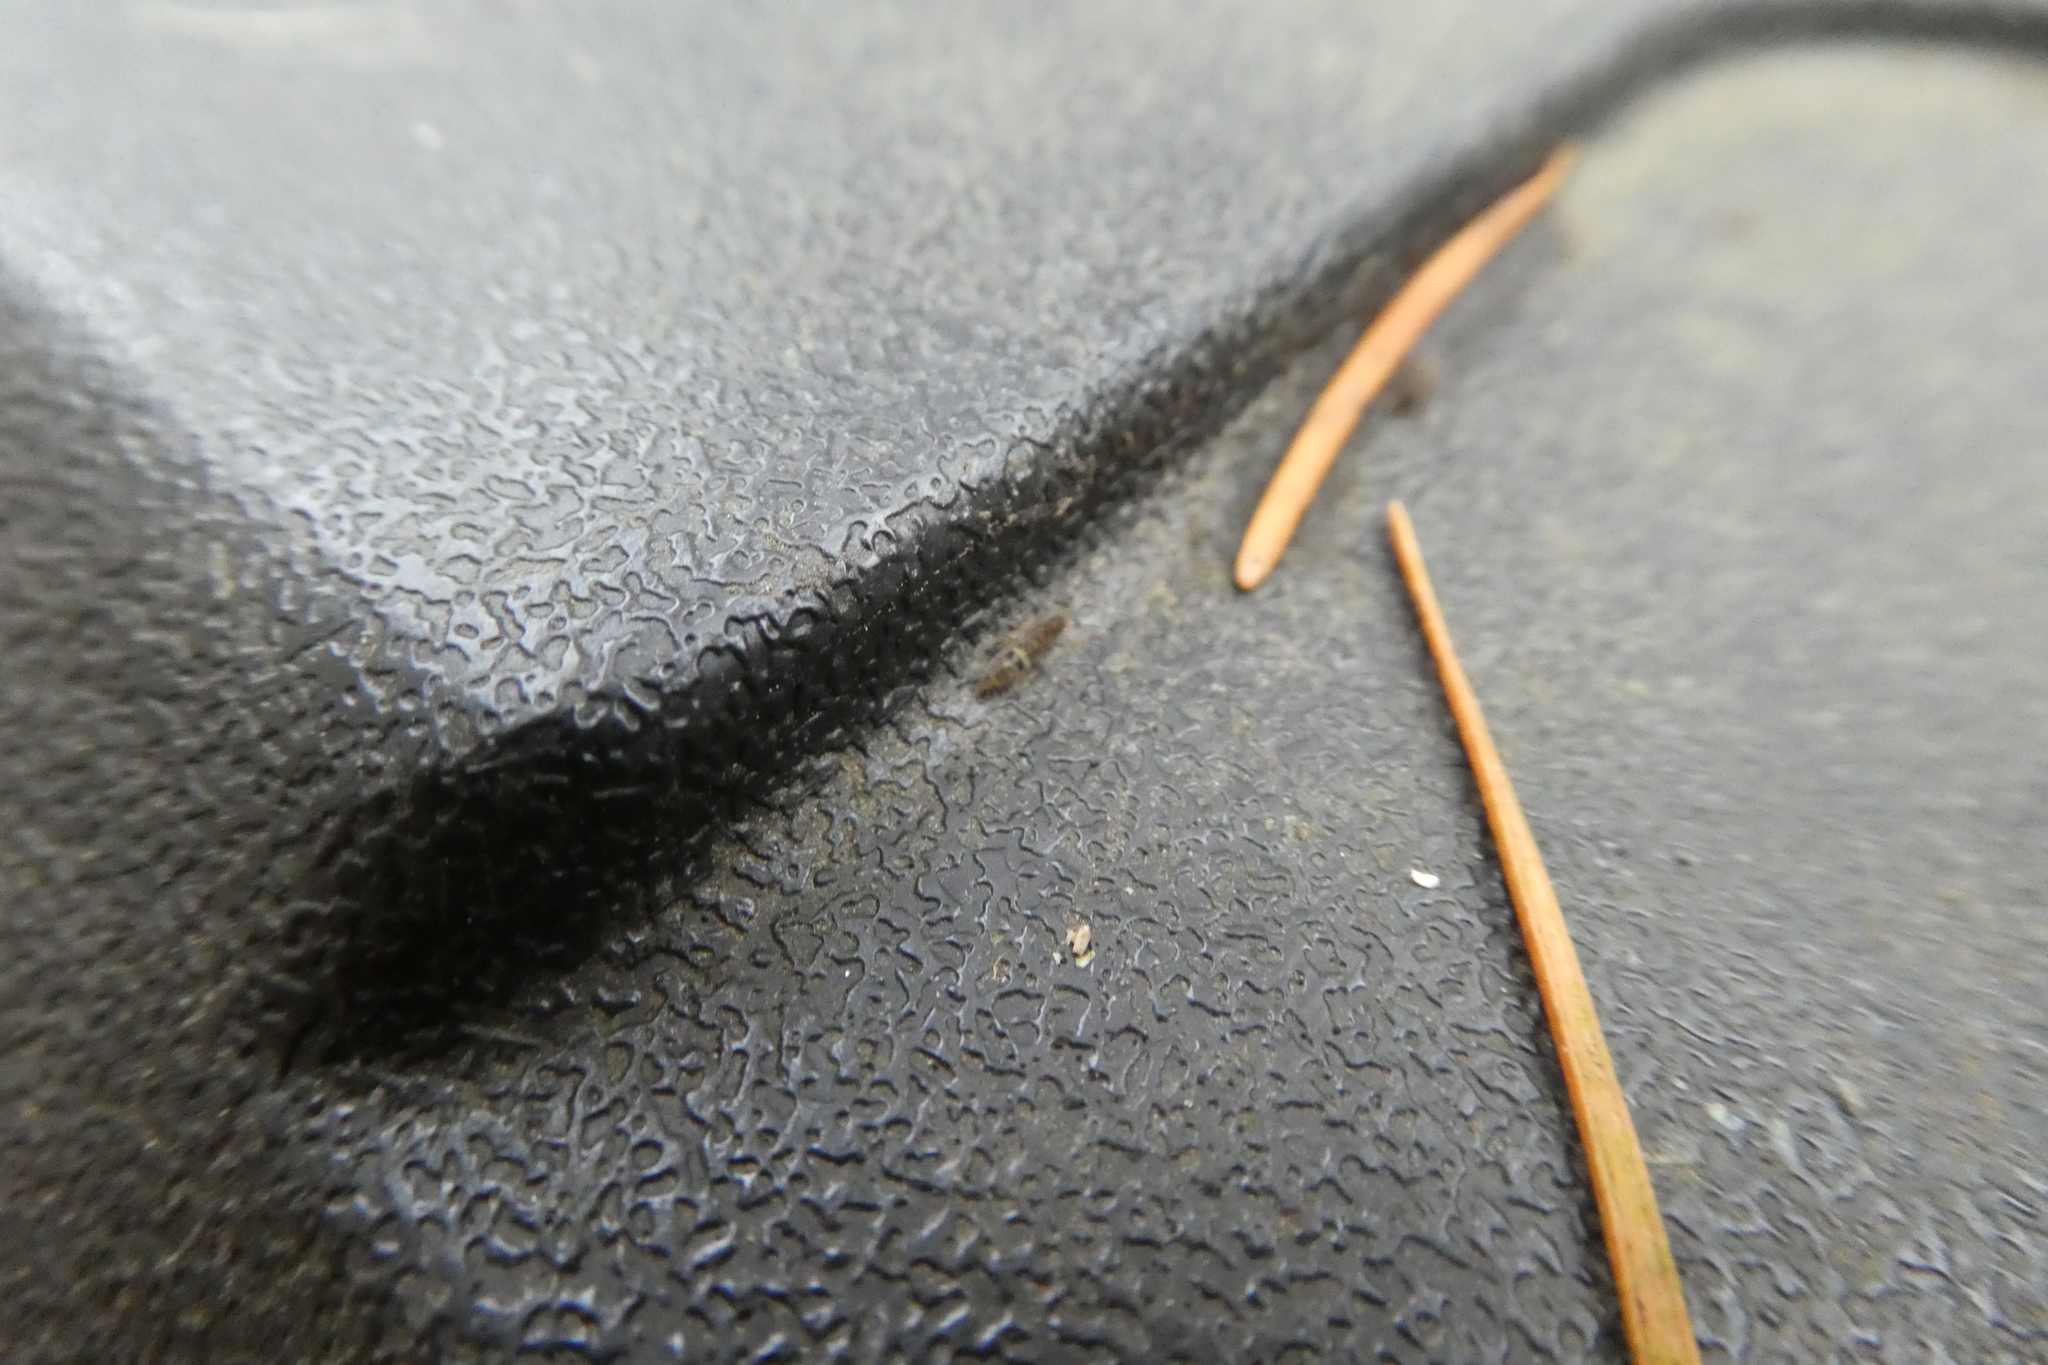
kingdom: Animalia
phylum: Arthropoda
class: Collembola
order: Entomobryomorpha
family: Orchesellidae
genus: Orchesella
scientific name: Orchesella cincta
